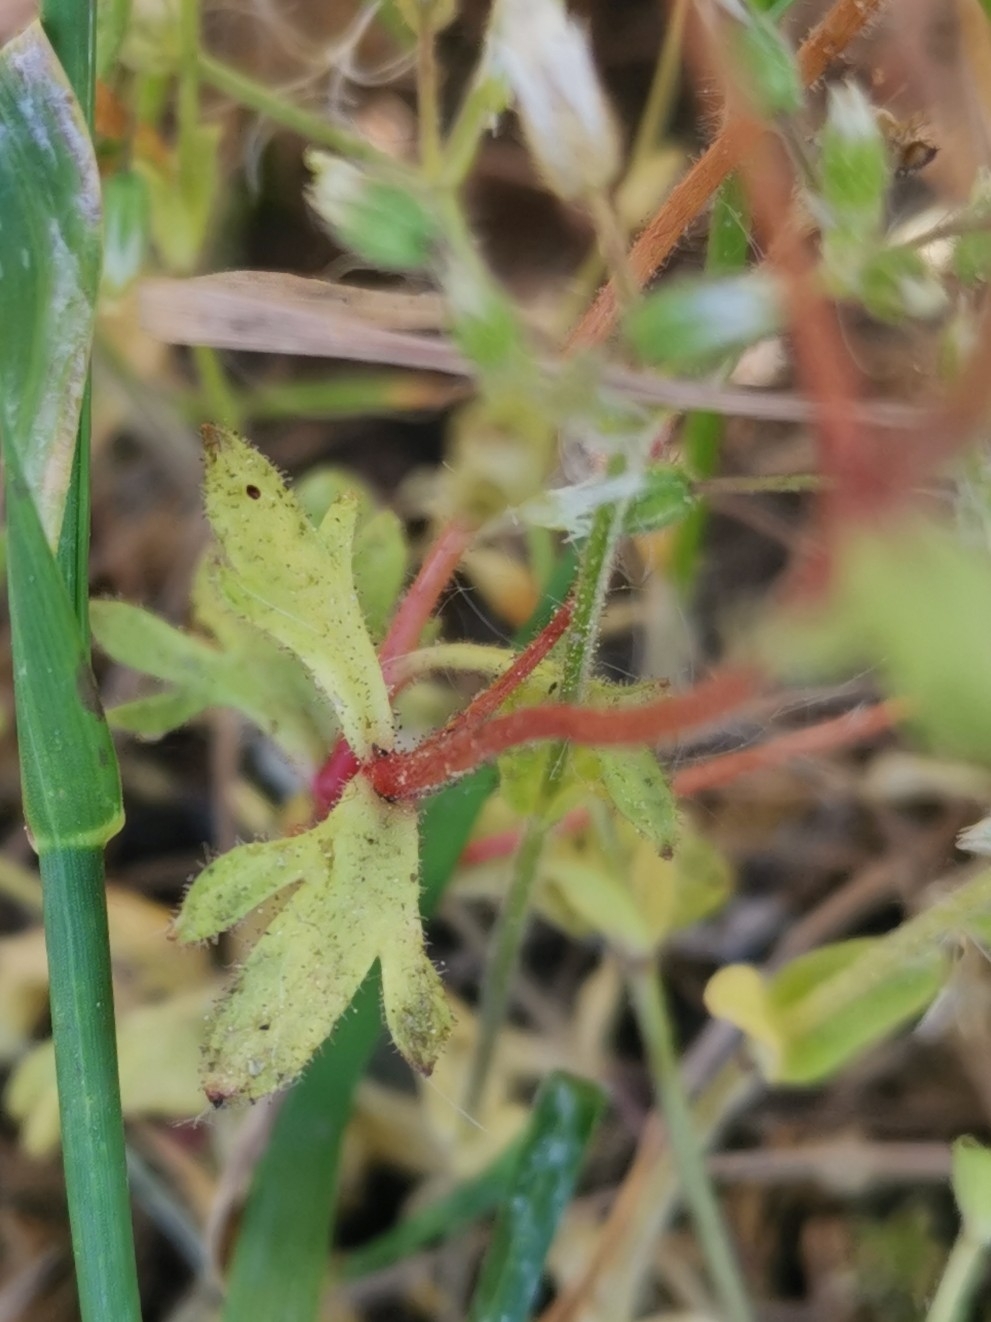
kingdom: Plantae
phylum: Tracheophyta
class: Magnoliopsida
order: Saxifragales
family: Saxifragaceae
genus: Saxifraga
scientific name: Saxifraga tridactylites
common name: Rue-leaved saxifrage
